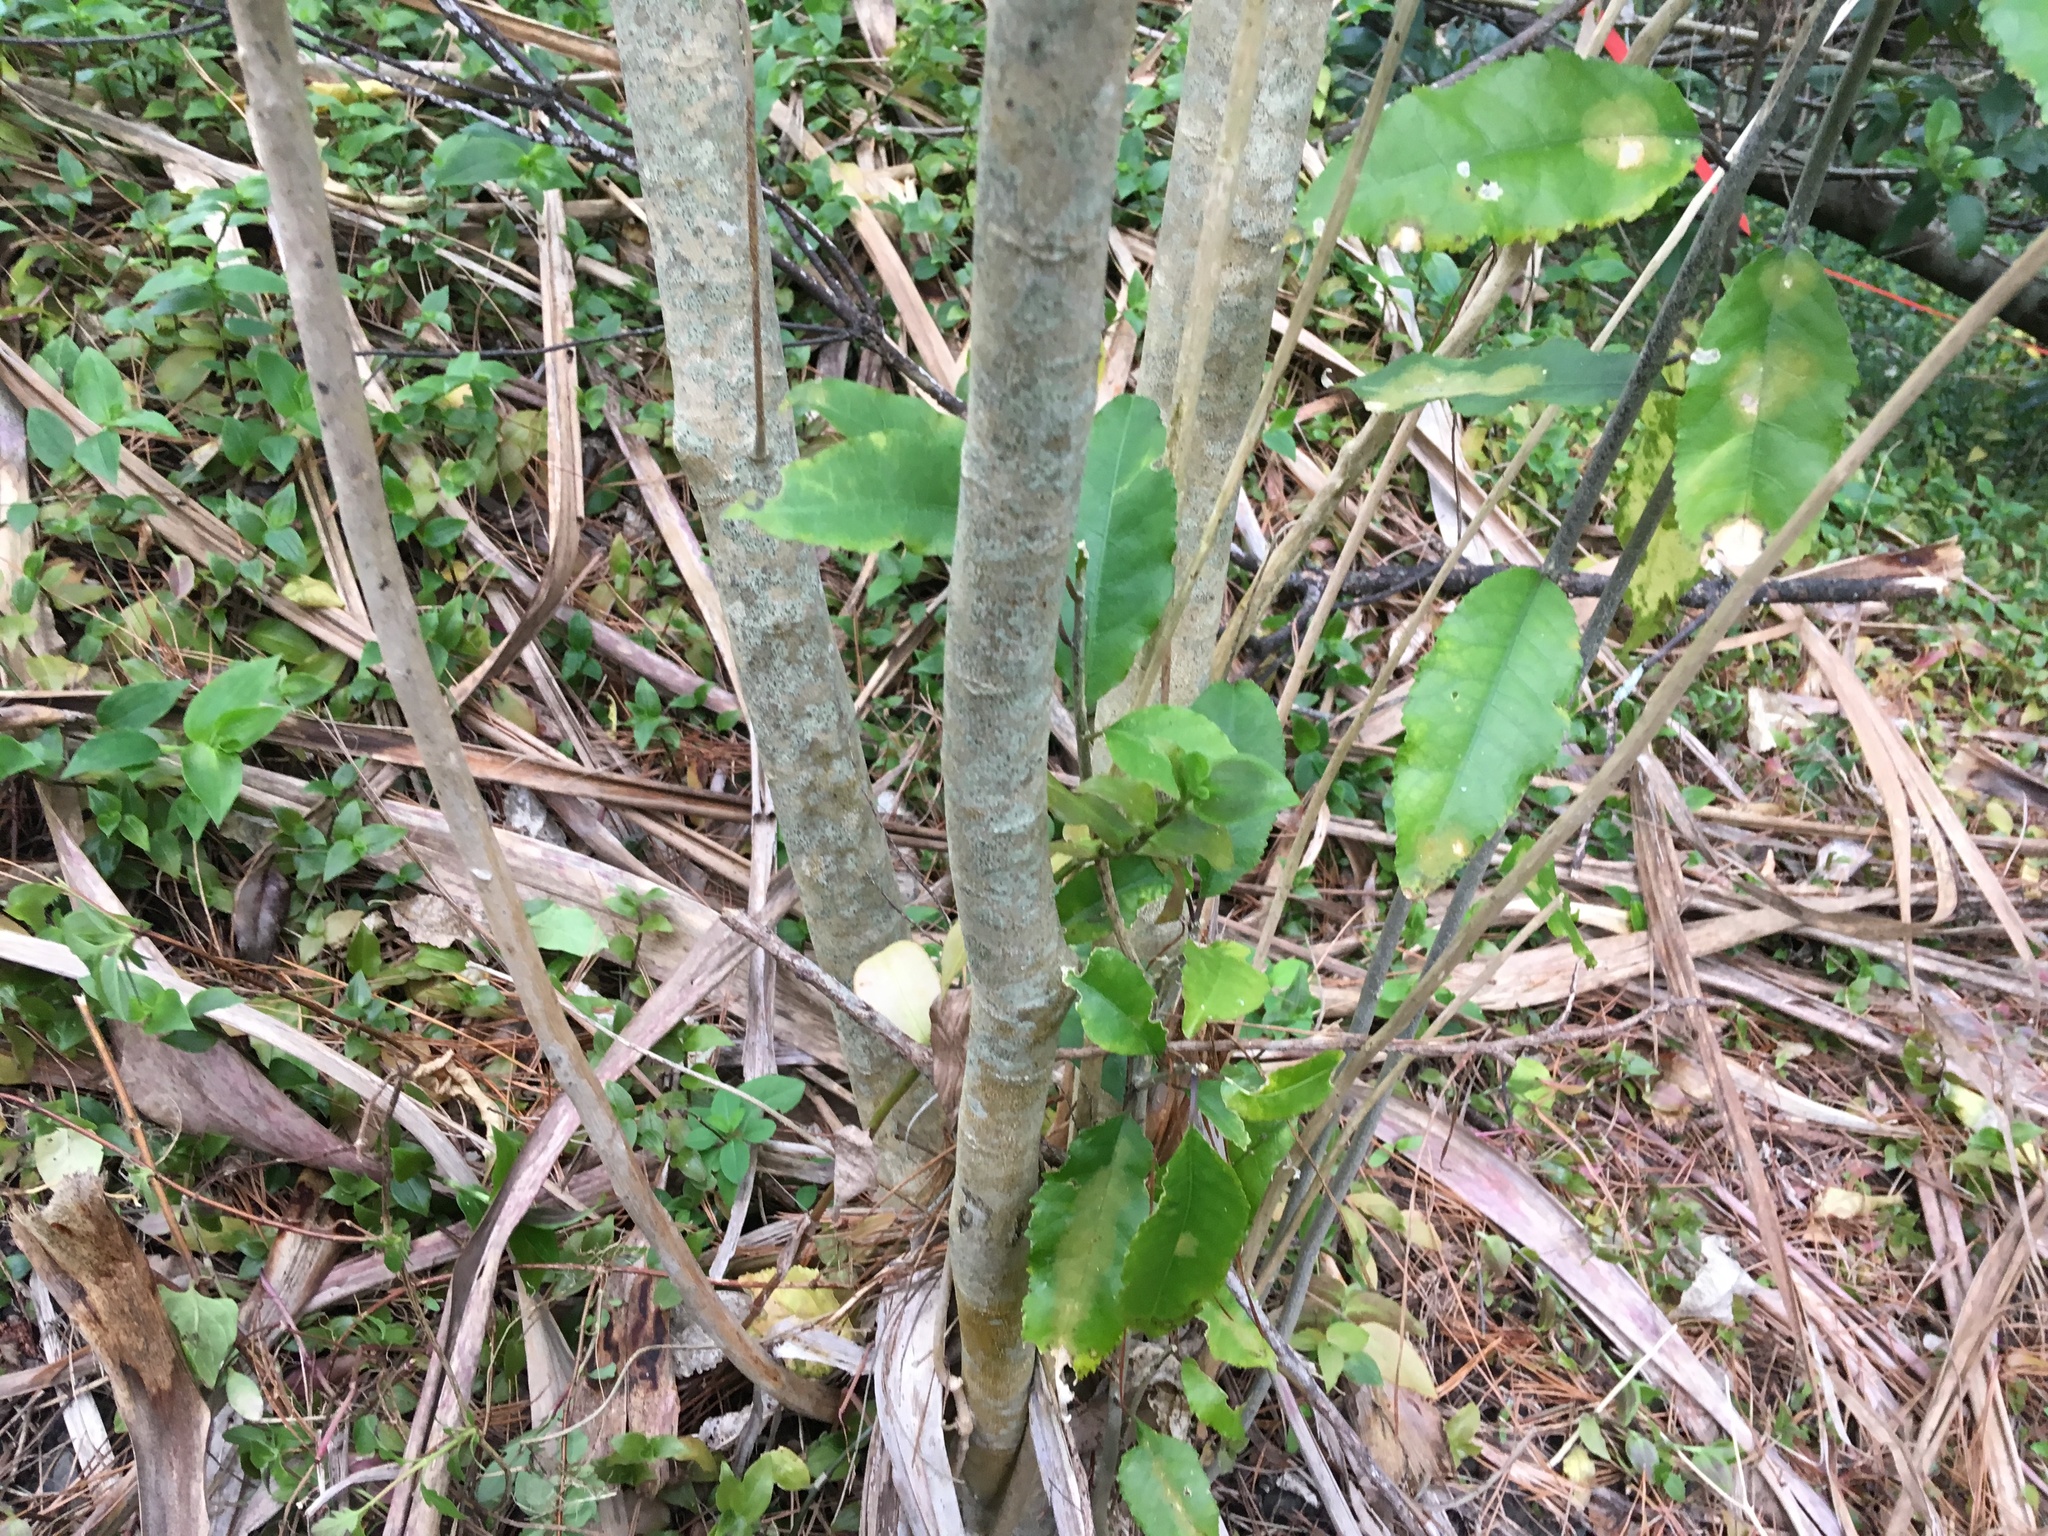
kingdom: Plantae
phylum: Tracheophyta
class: Magnoliopsida
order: Malpighiales
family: Violaceae
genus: Melicytus
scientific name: Melicytus ramiflorus
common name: Mahoe
